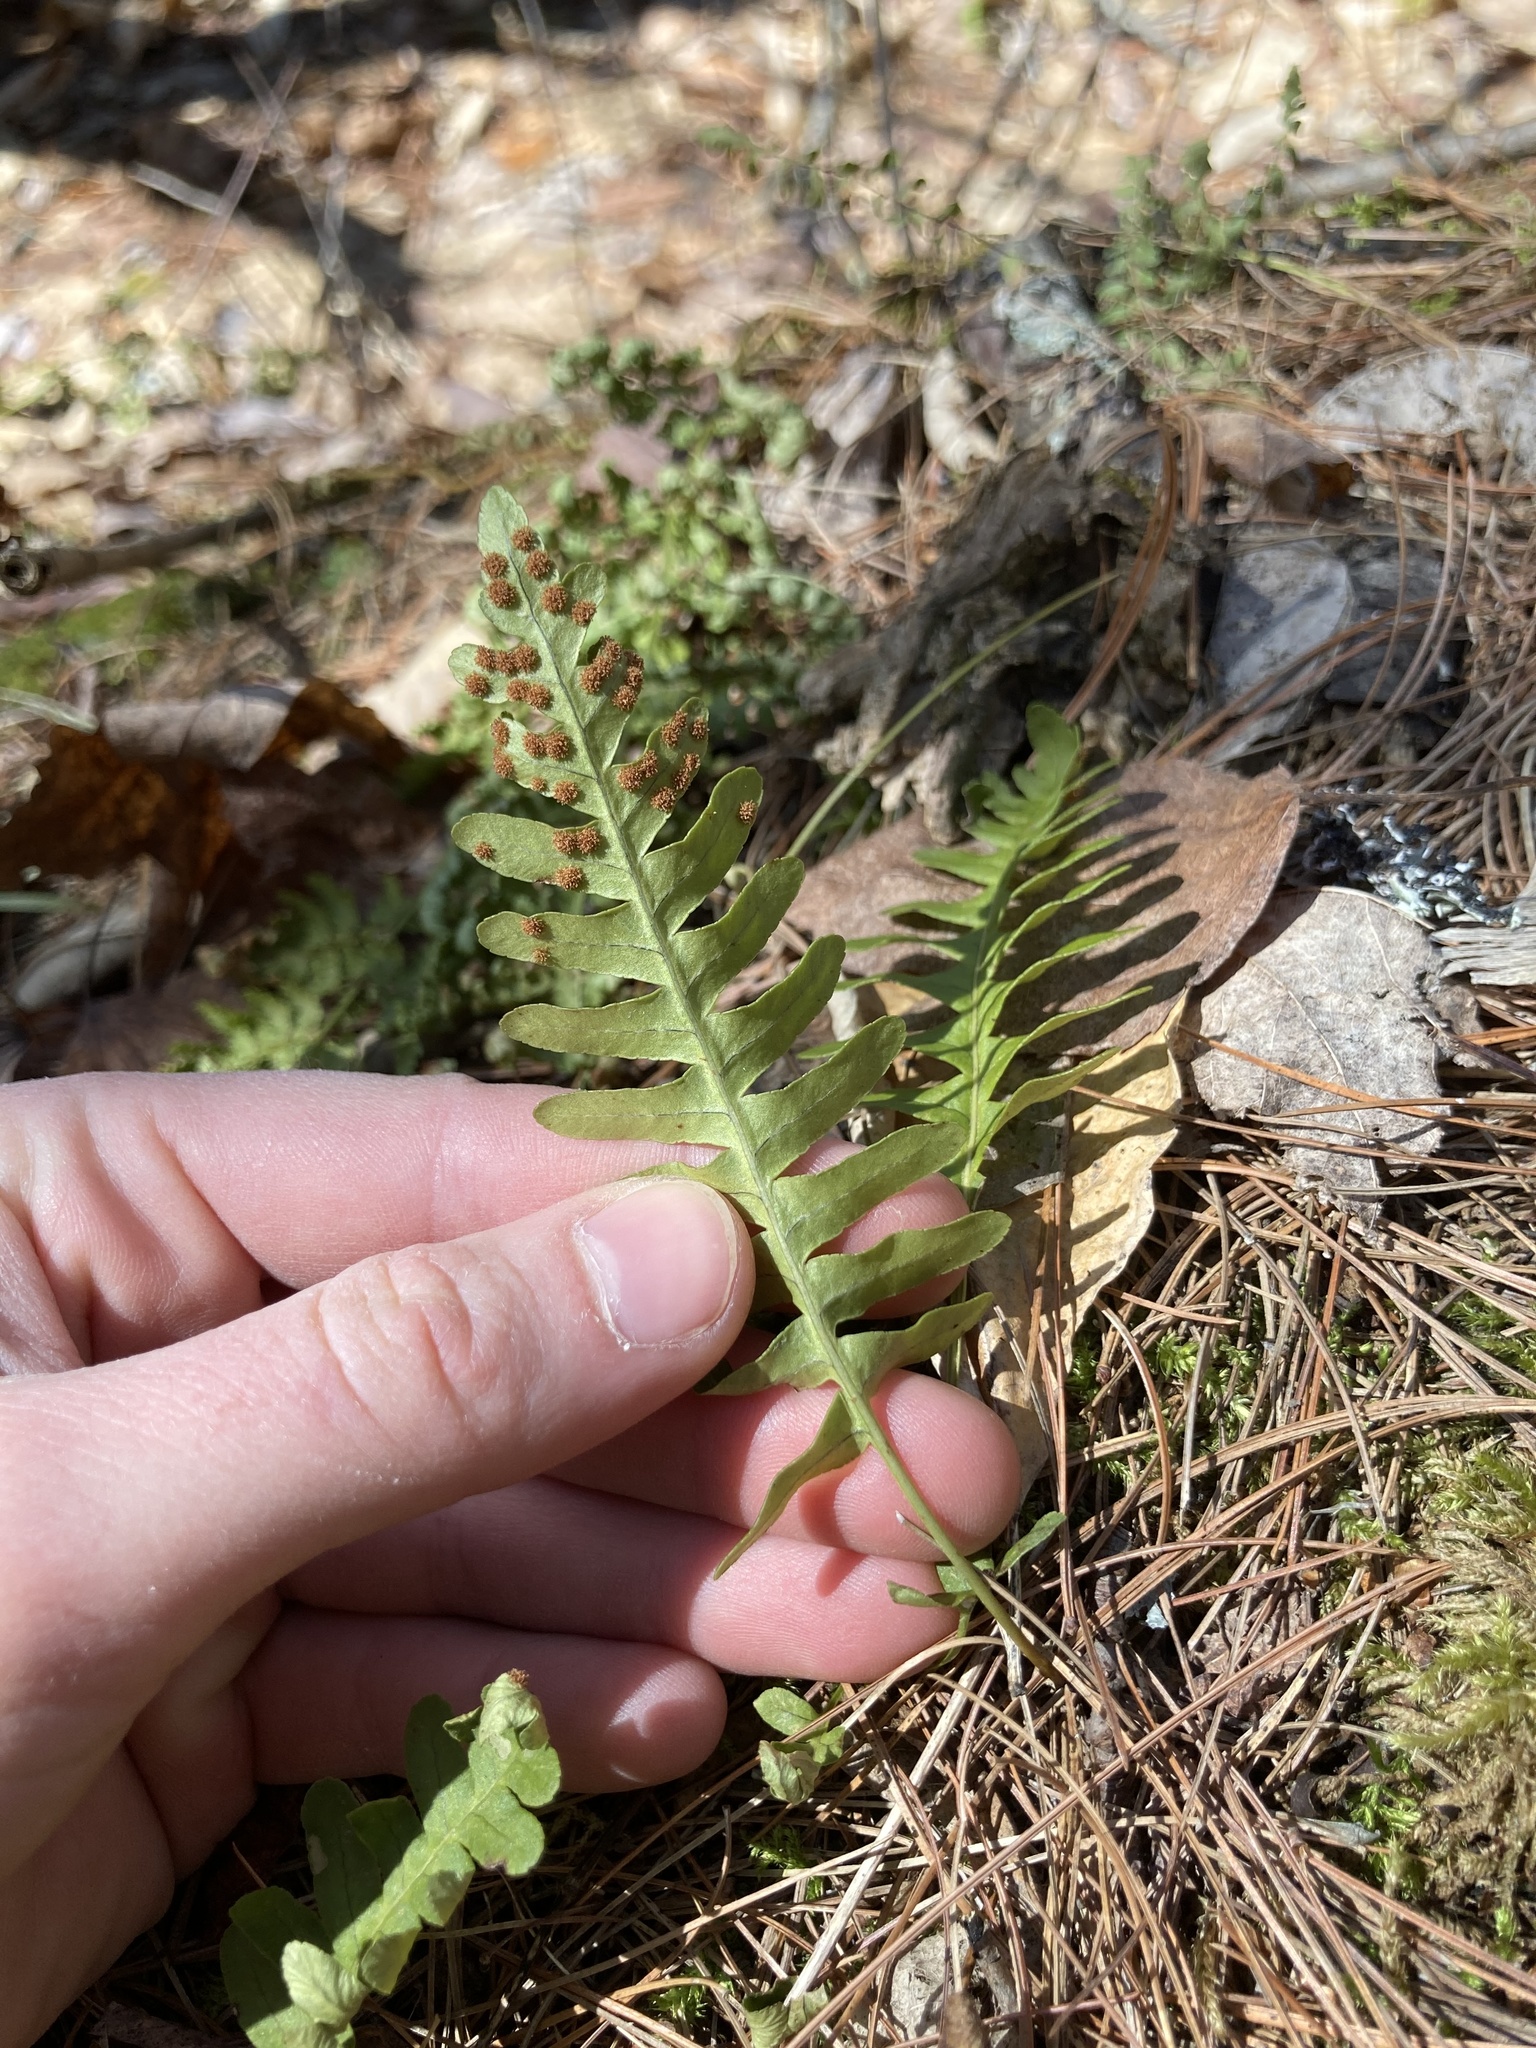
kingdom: Plantae
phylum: Tracheophyta
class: Polypodiopsida
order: Polypodiales
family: Polypodiaceae
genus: Polypodium
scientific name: Polypodium virginianum
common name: American wall fern
